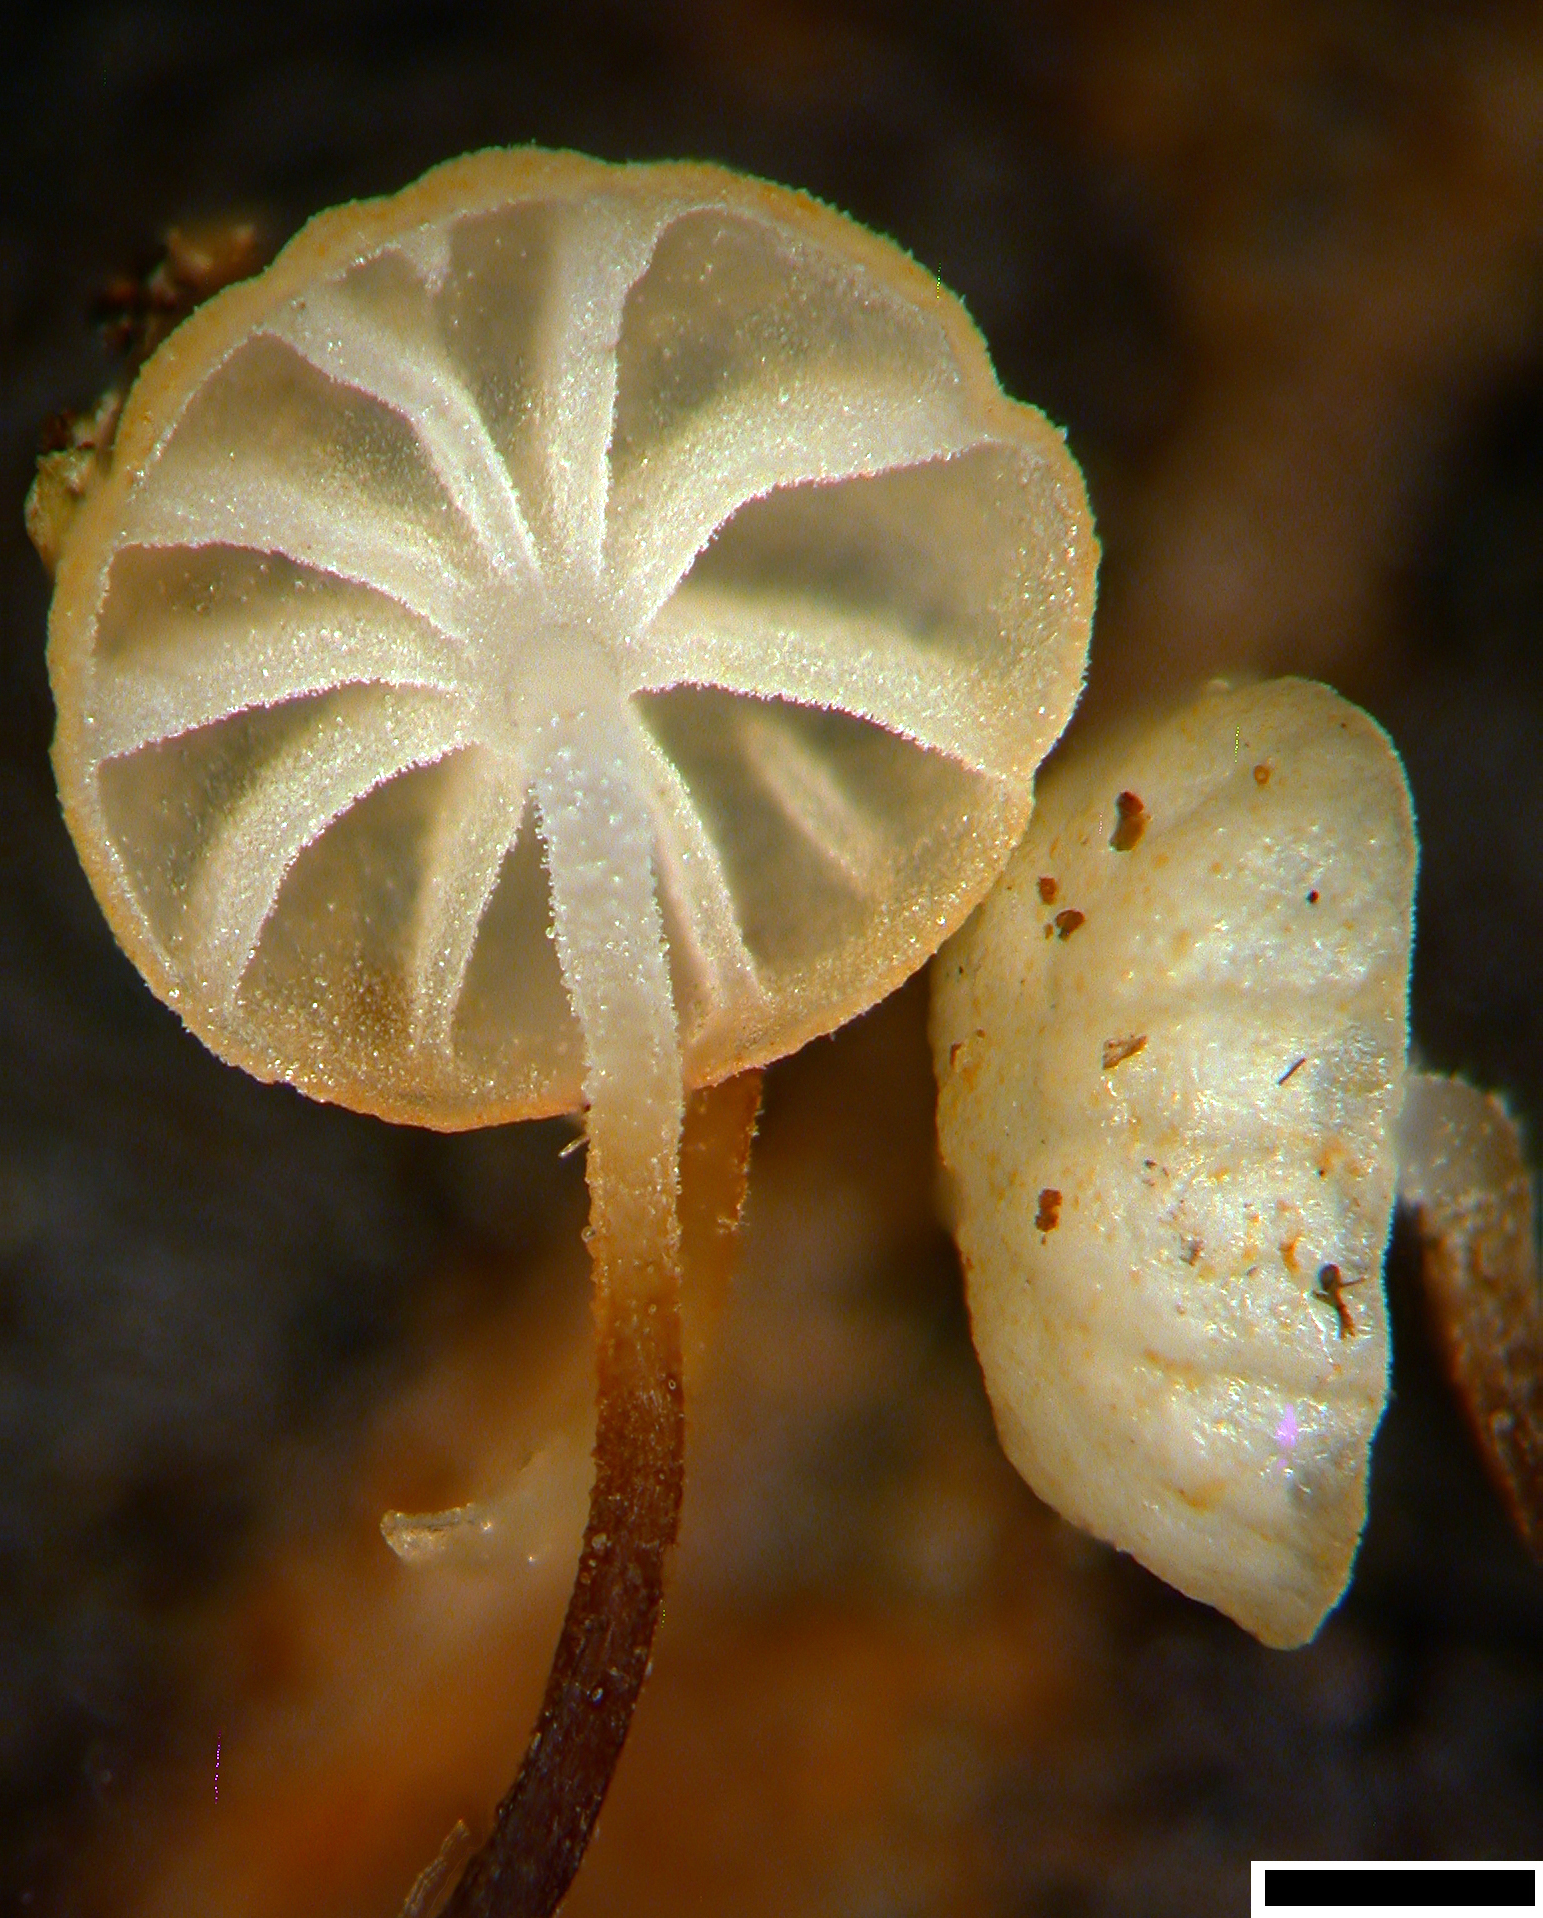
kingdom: Fungi
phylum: Basidiomycota
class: Agaricomycetes
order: Agaricales
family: Physalacriaceae
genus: Gloiocephala
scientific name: Gloiocephala xanthocephala
